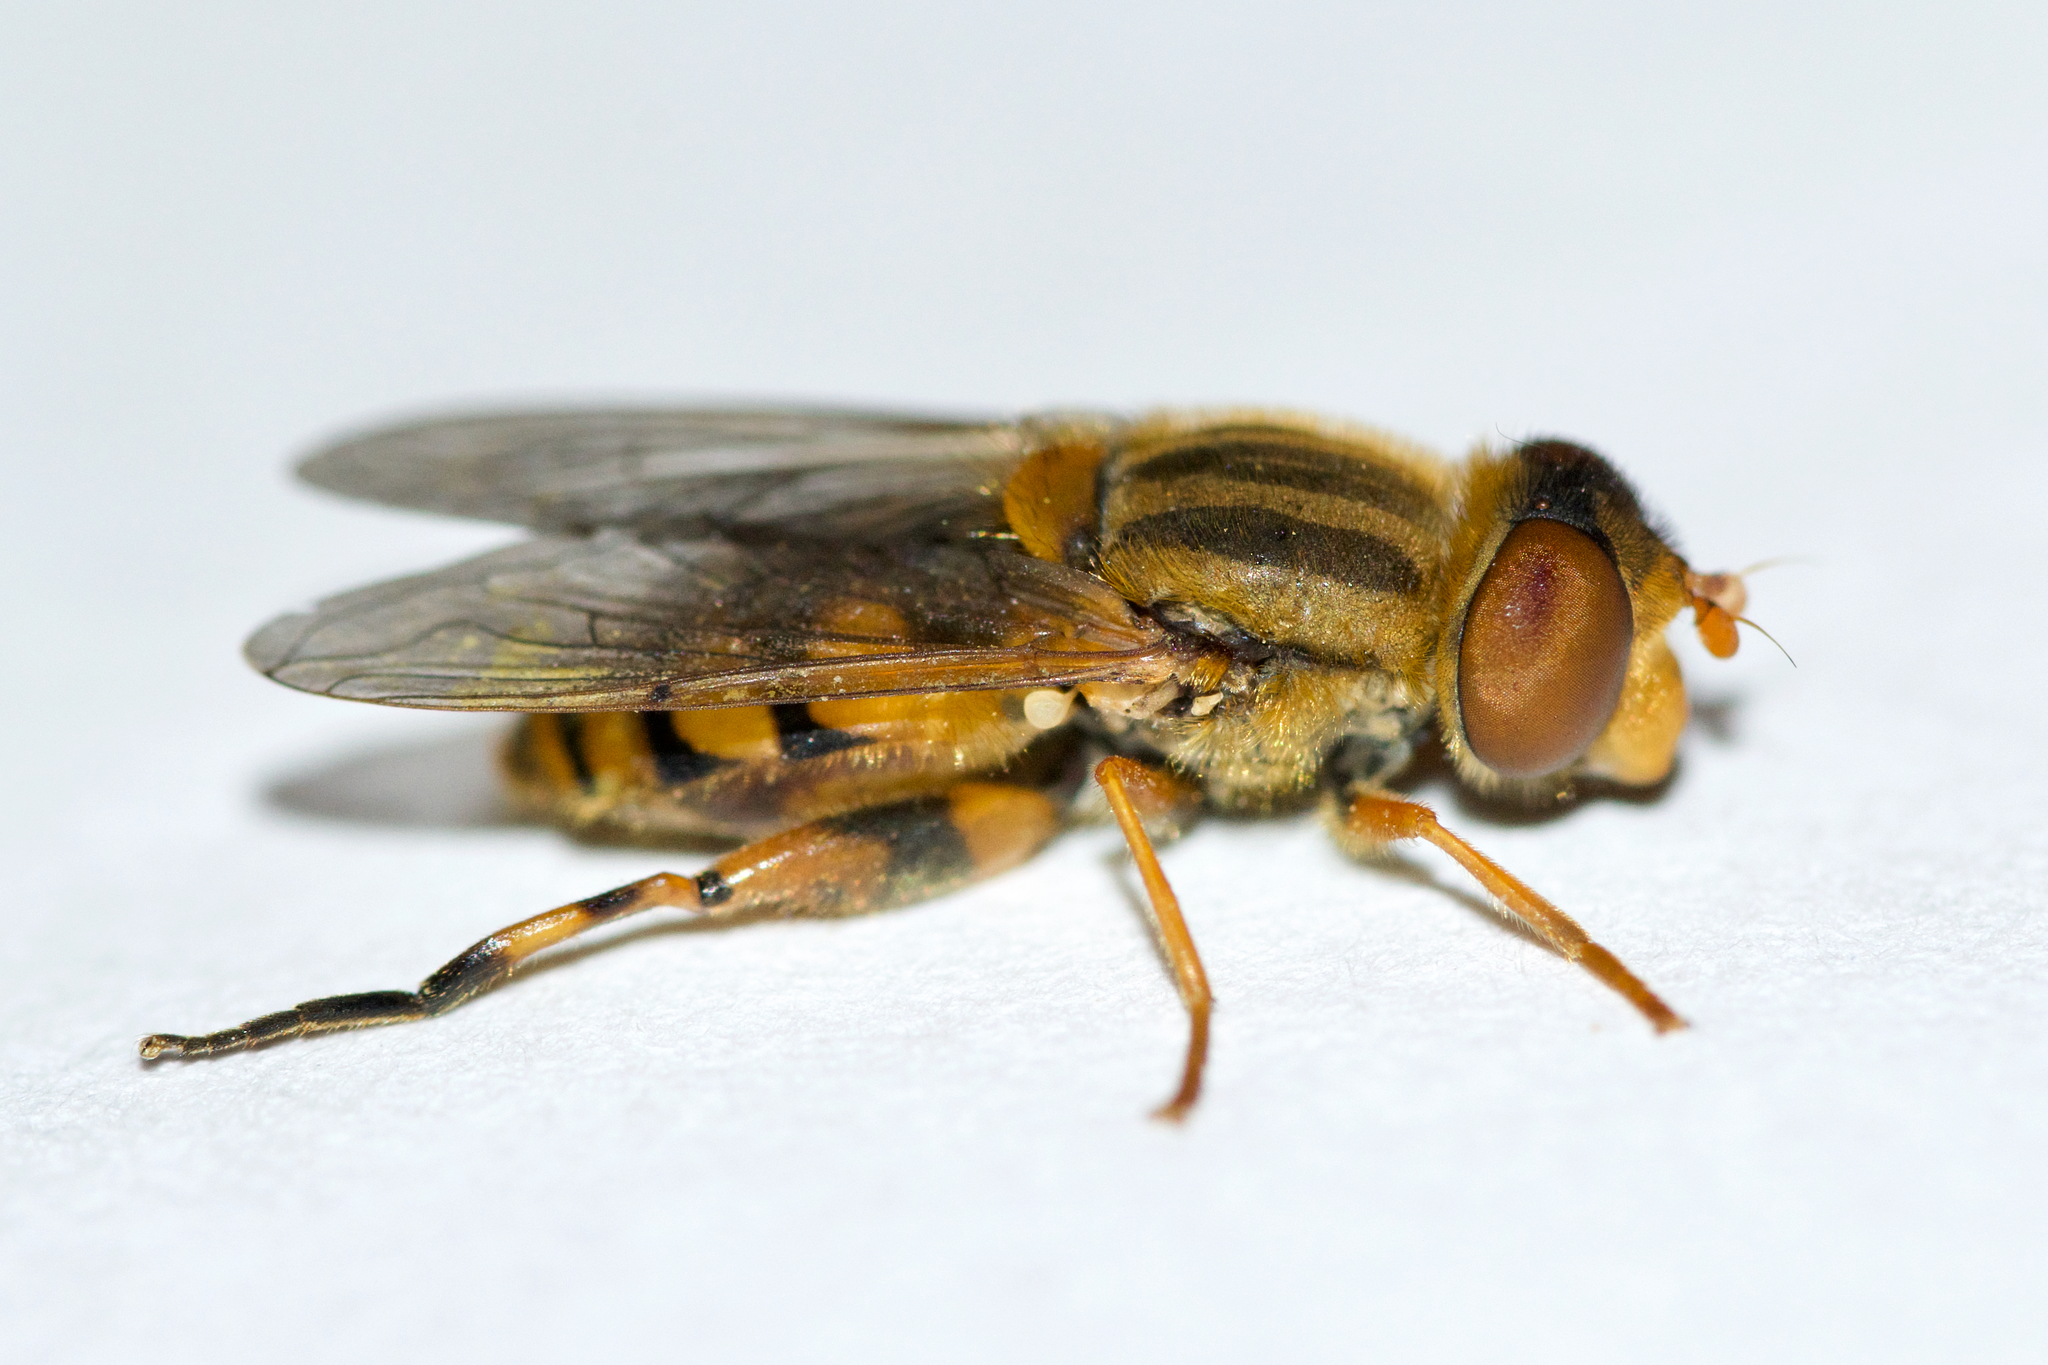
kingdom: Animalia
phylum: Arthropoda
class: Insecta
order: Diptera
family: Syrphidae
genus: Parhelophilus
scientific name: Parhelophilus laetus
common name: Common bog fly
